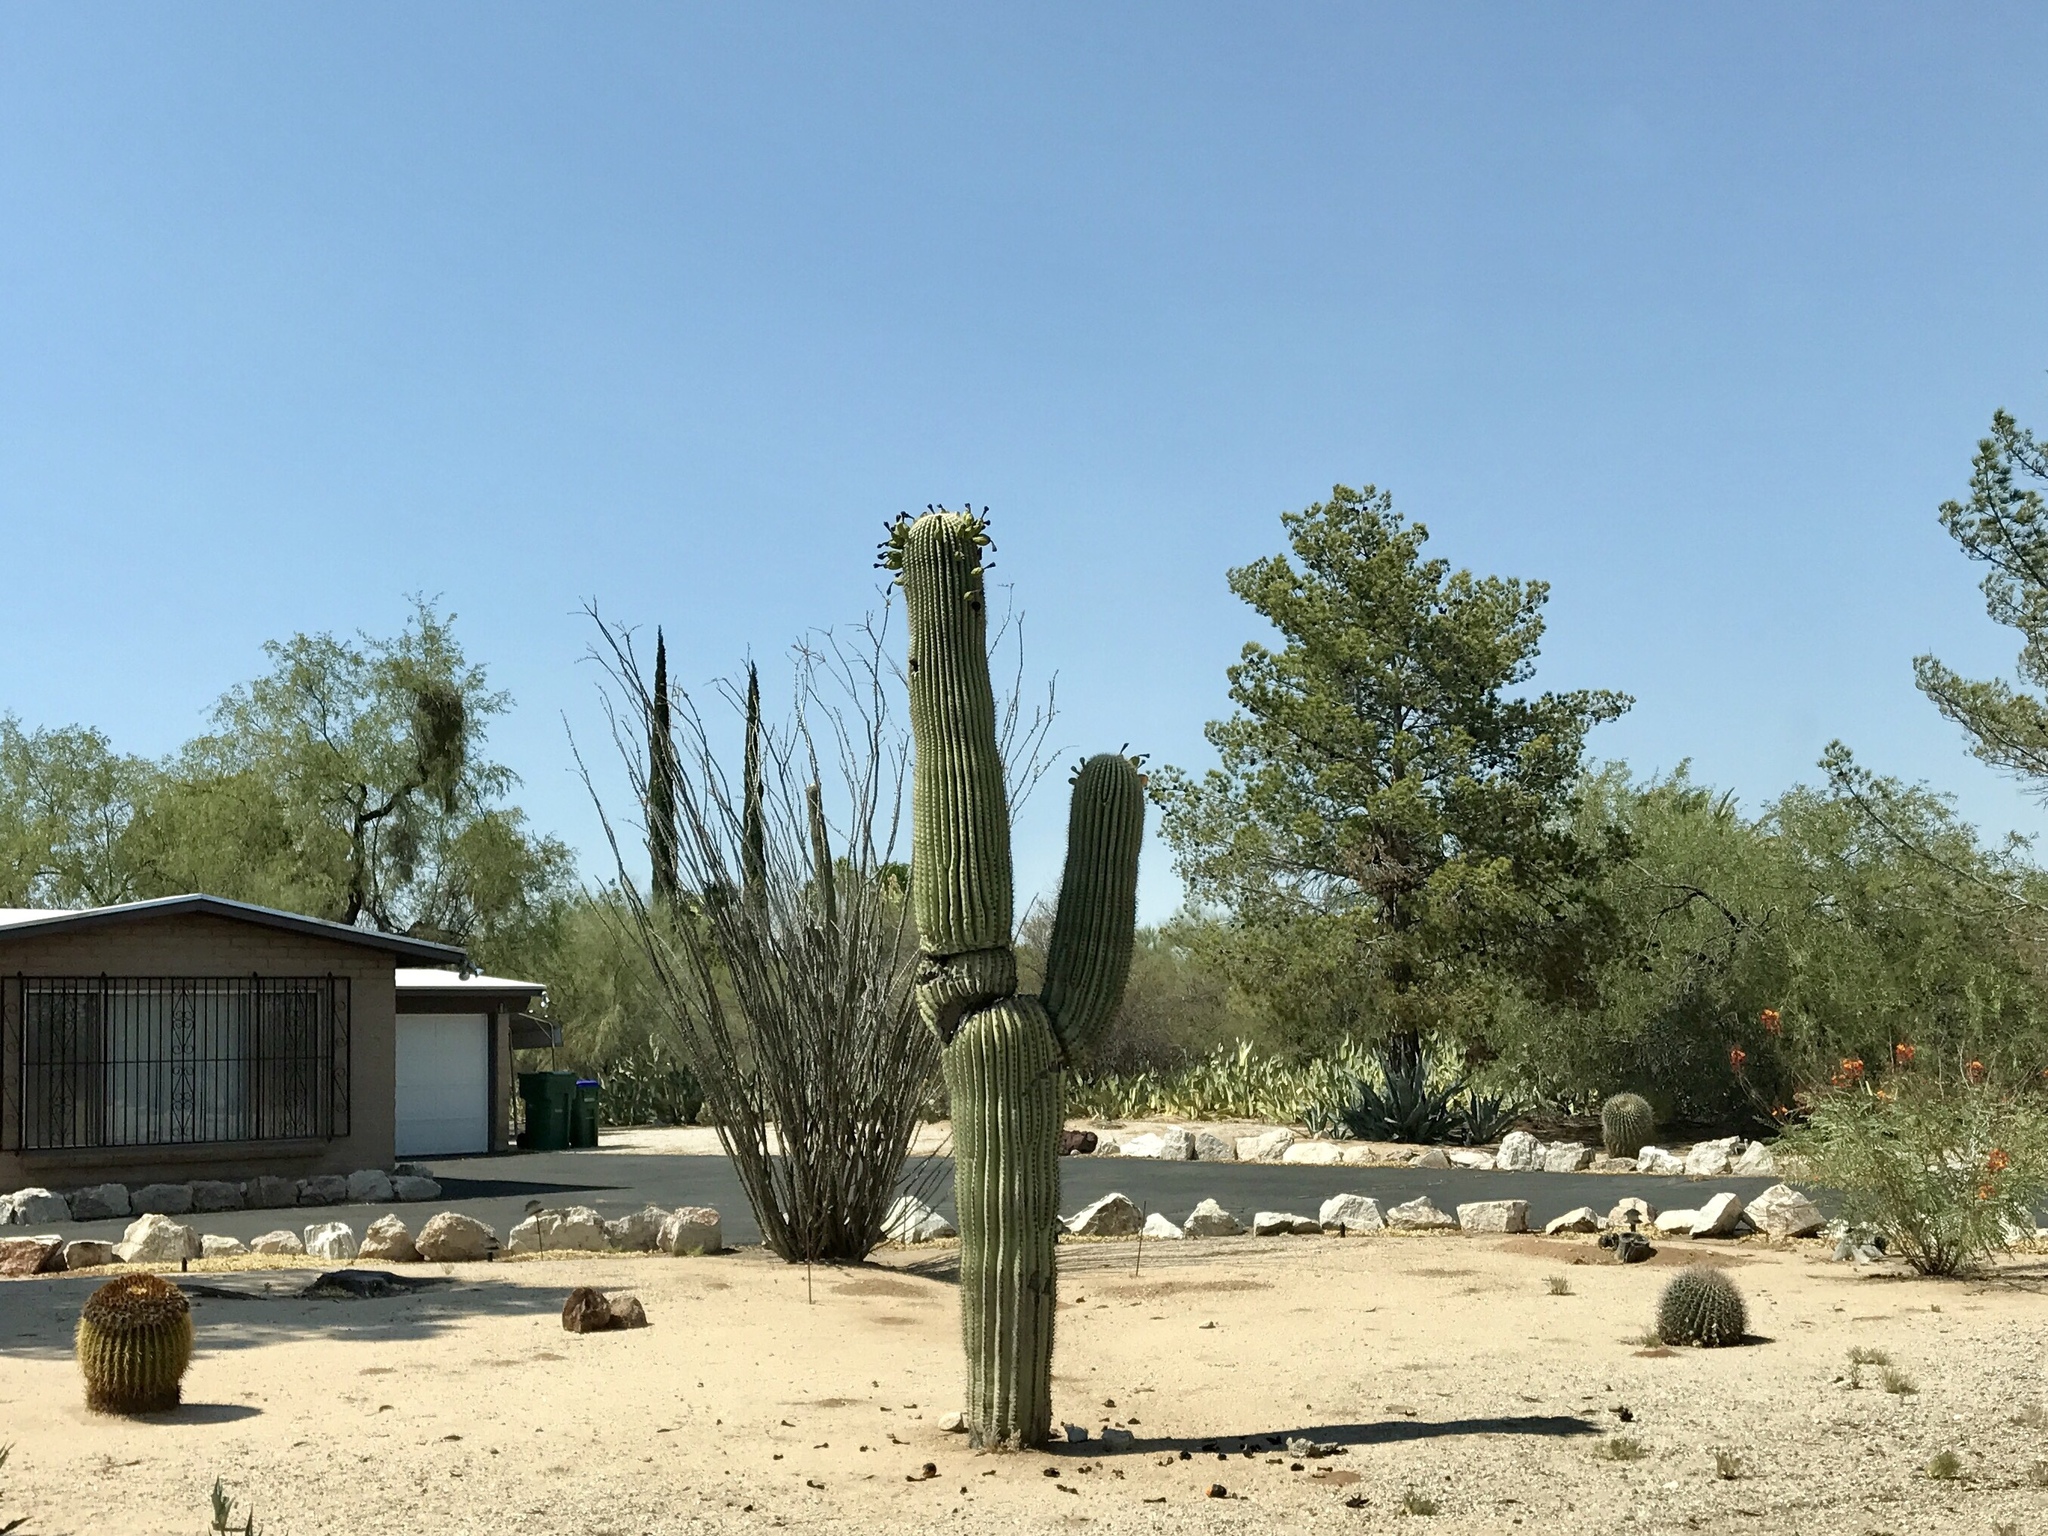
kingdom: Plantae
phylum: Tracheophyta
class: Magnoliopsida
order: Caryophyllales
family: Cactaceae
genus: Carnegiea
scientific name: Carnegiea gigantea
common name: Saguaro
